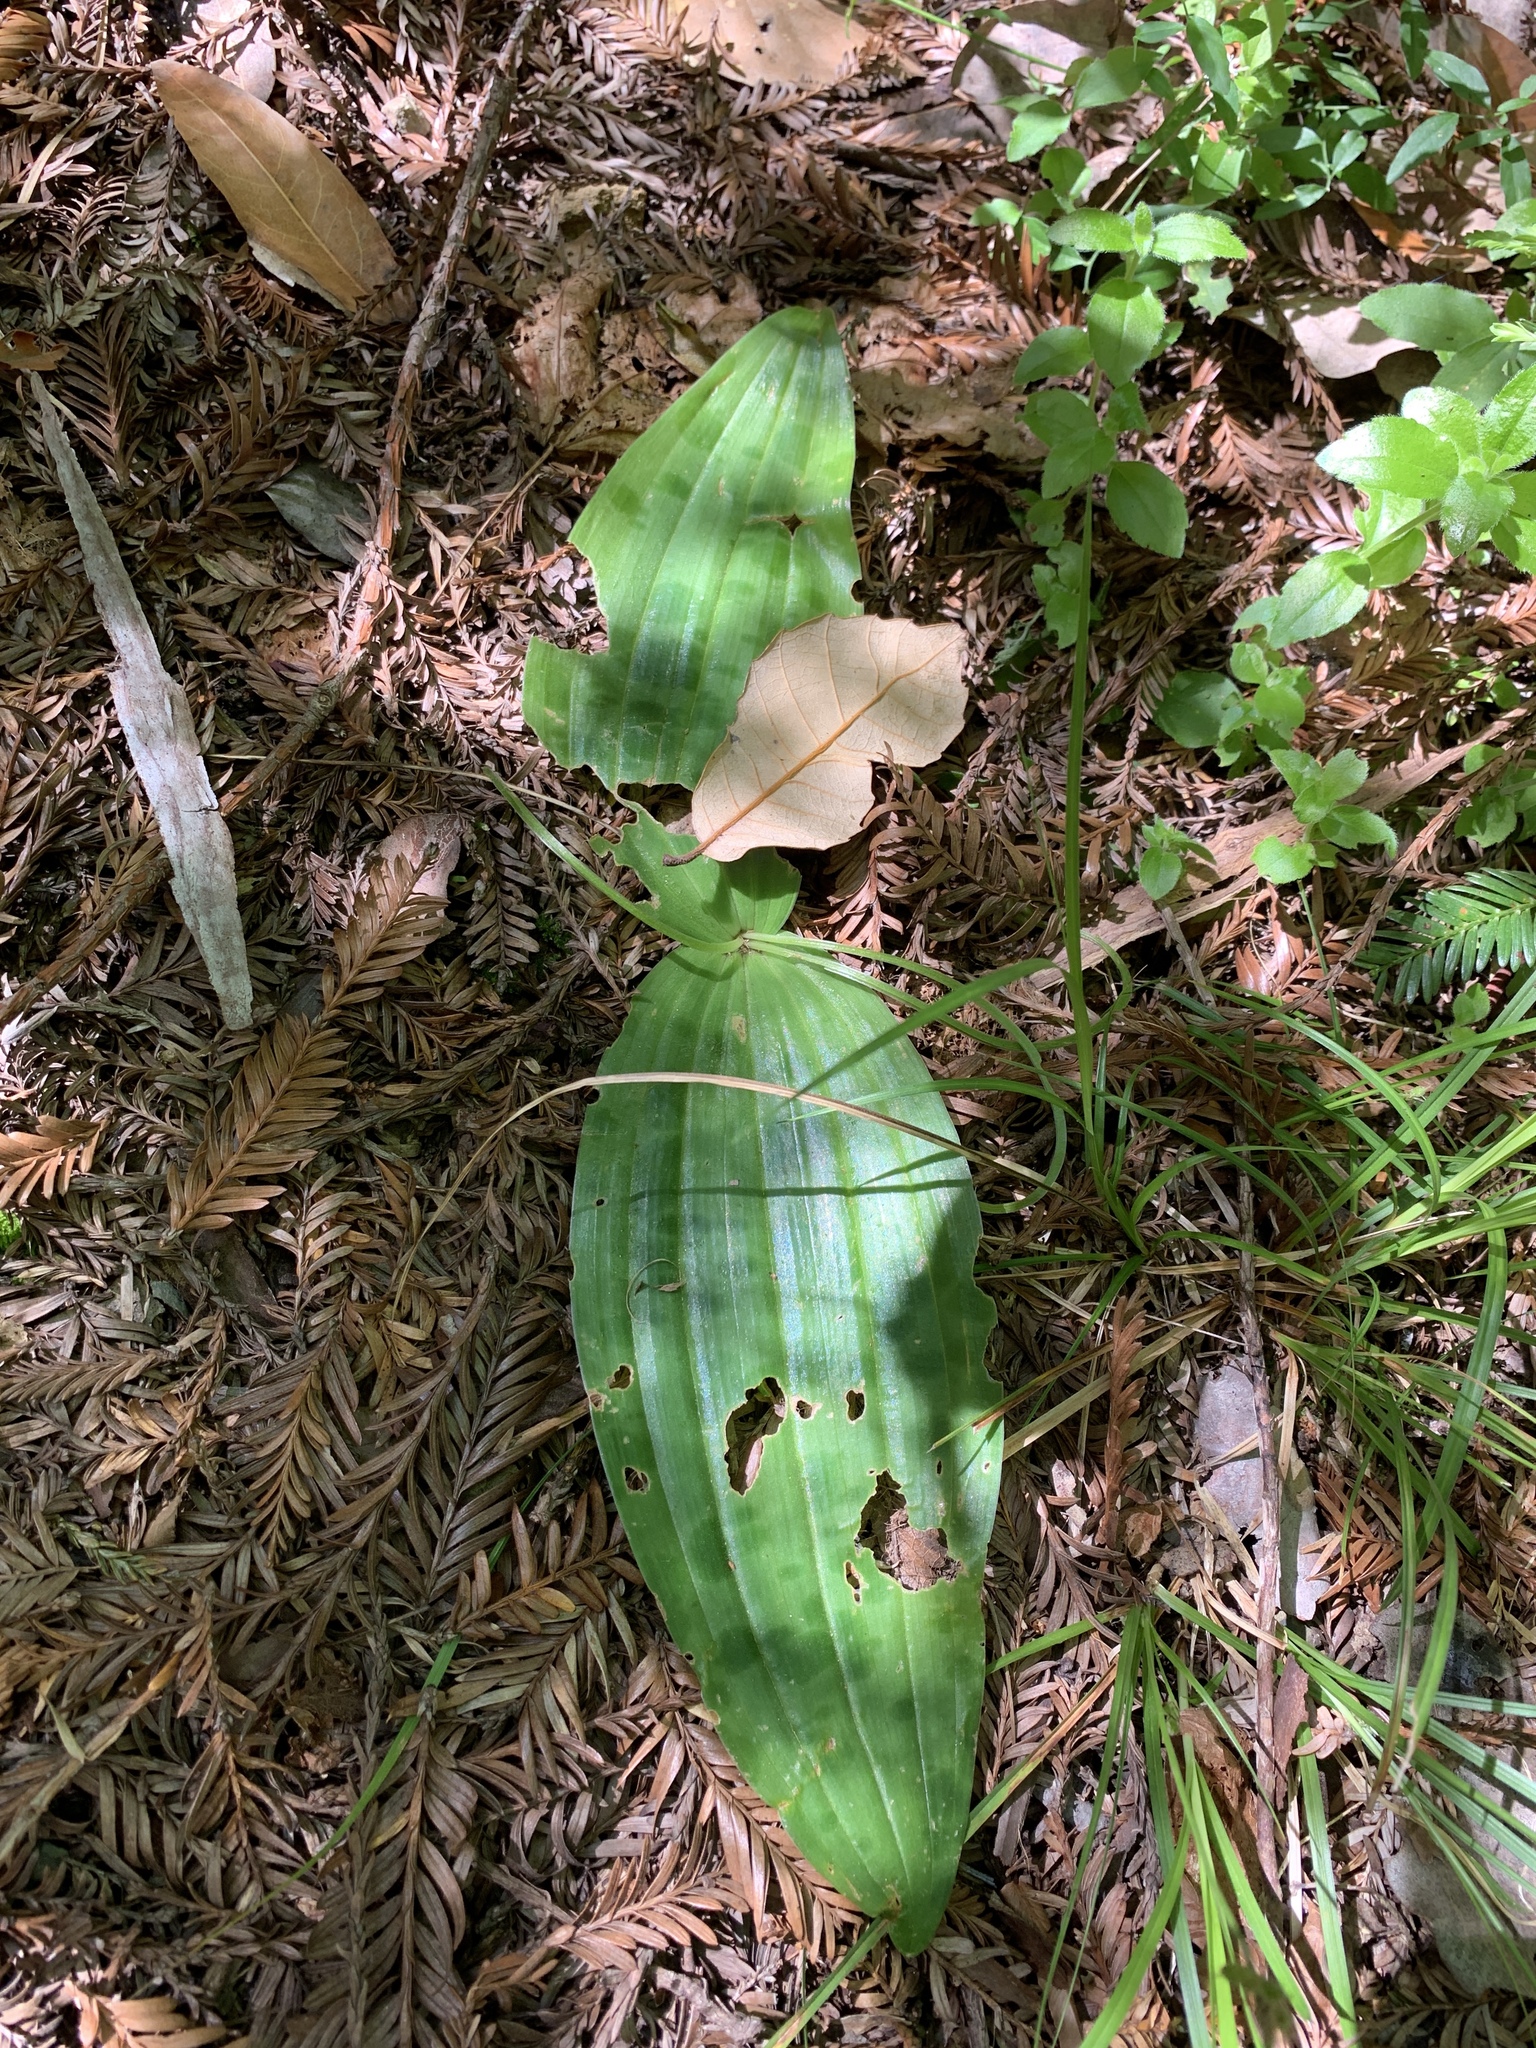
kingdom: Plantae
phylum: Tracheophyta
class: Liliopsida
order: Liliales
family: Liliaceae
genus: Scoliopus
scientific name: Scoliopus bigelovii
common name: Foetid adder's-tongue
